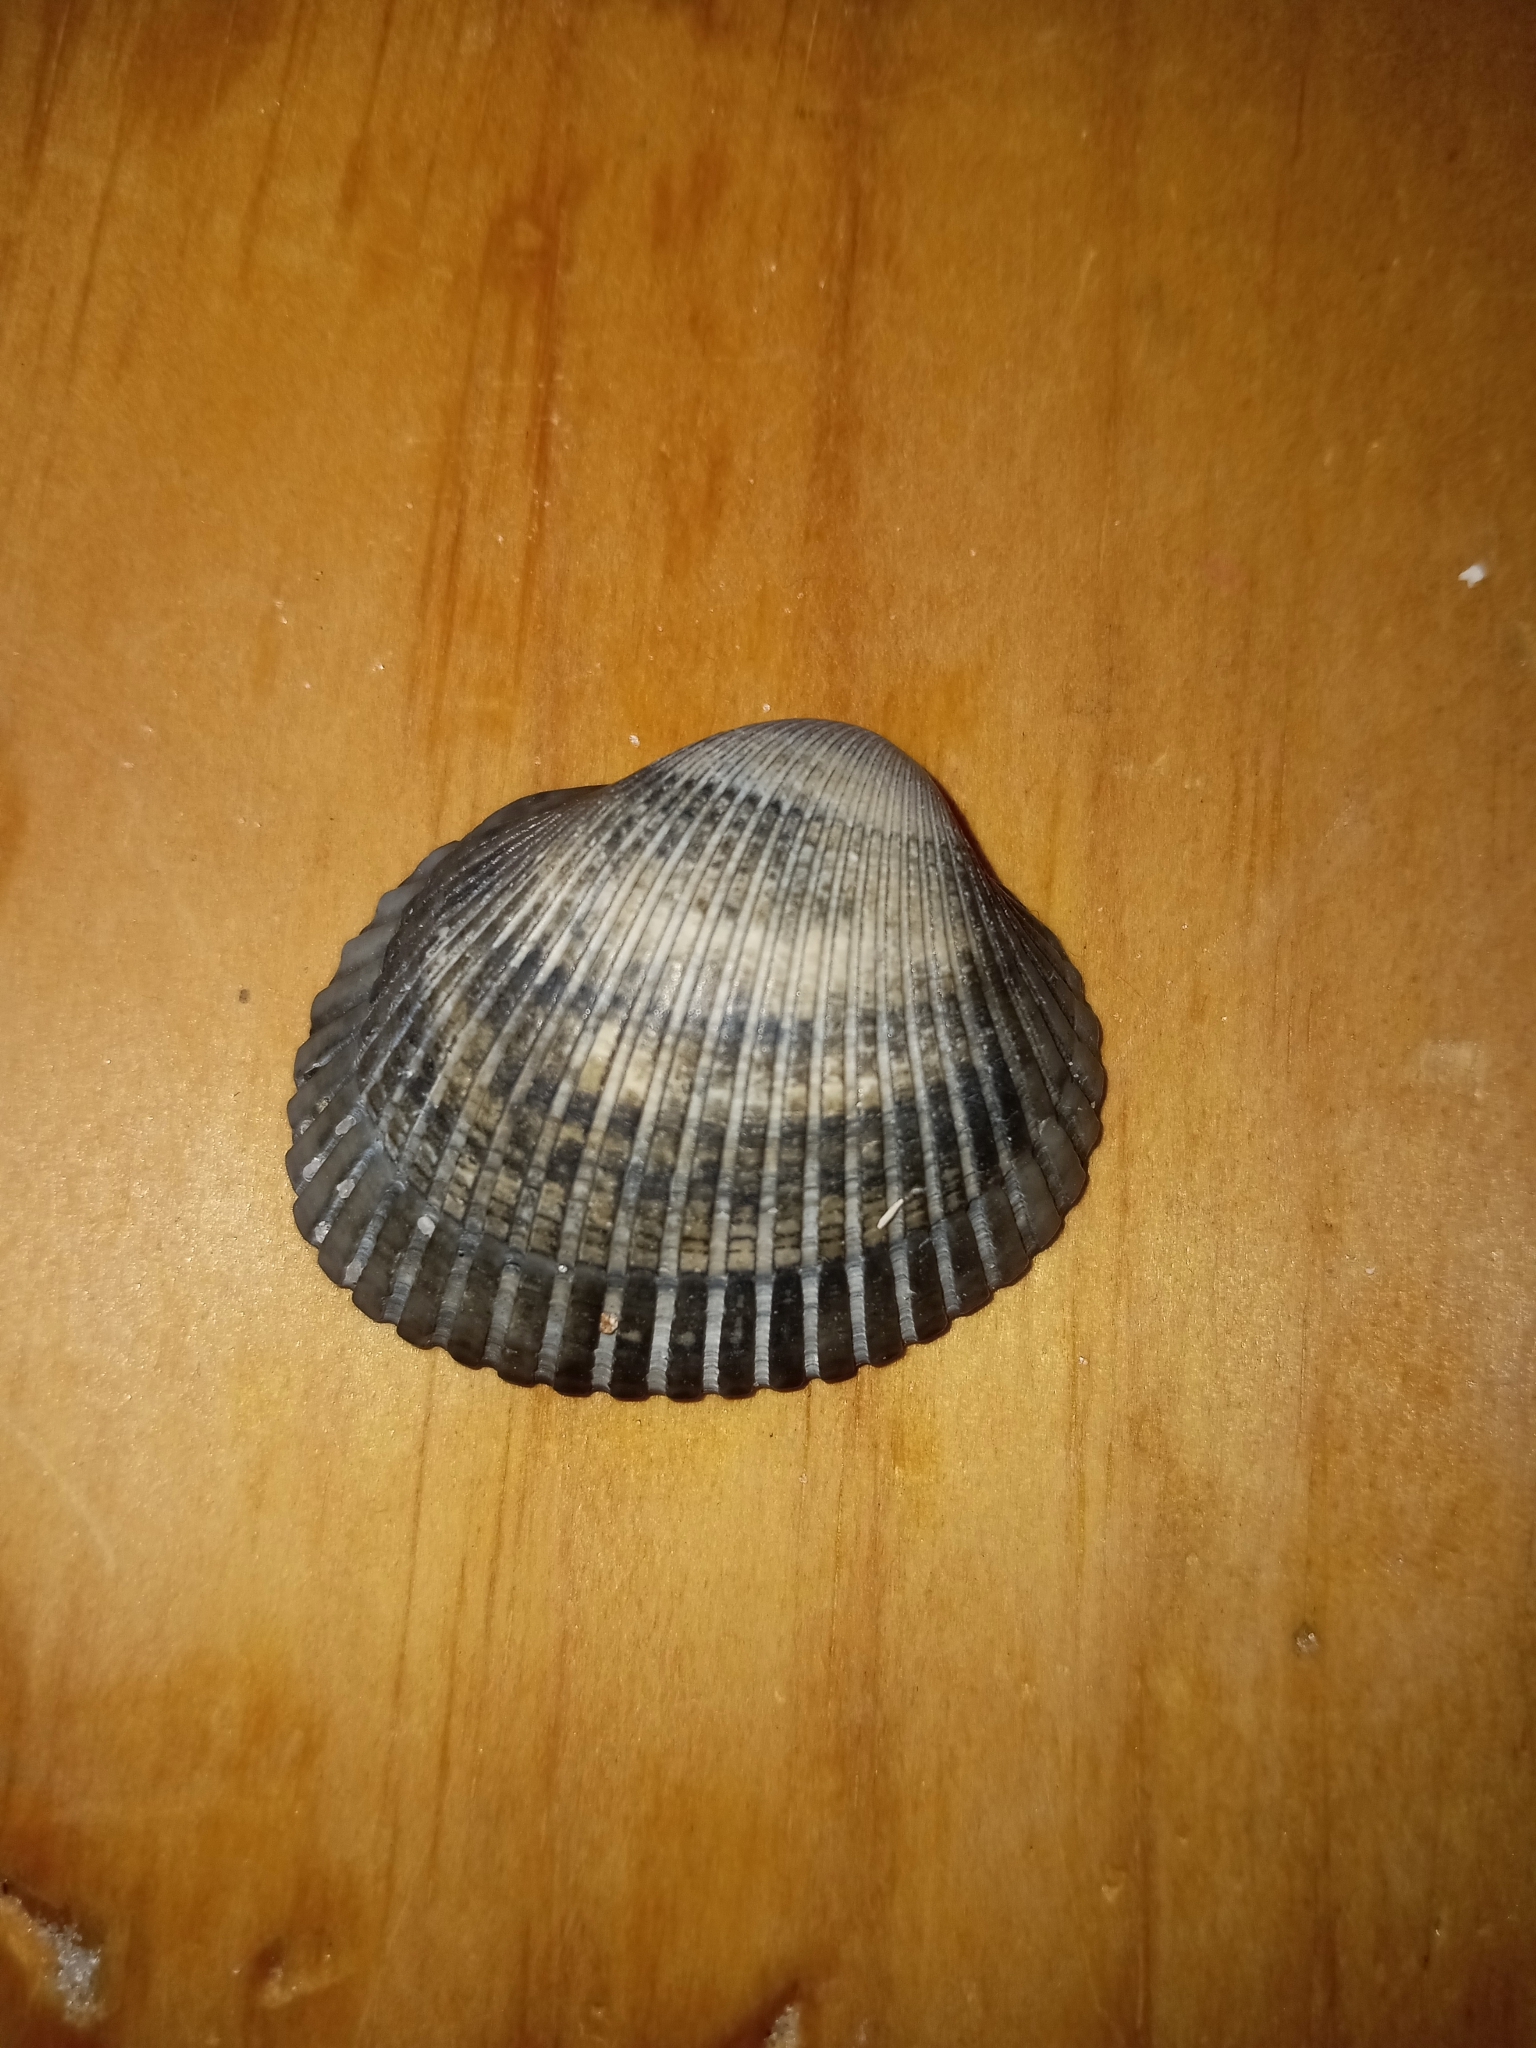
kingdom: Animalia
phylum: Mollusca
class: Bivalvia
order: Arcida
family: Arcidae
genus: Lunarca
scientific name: Lunarca ovalis
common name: Blood ark
